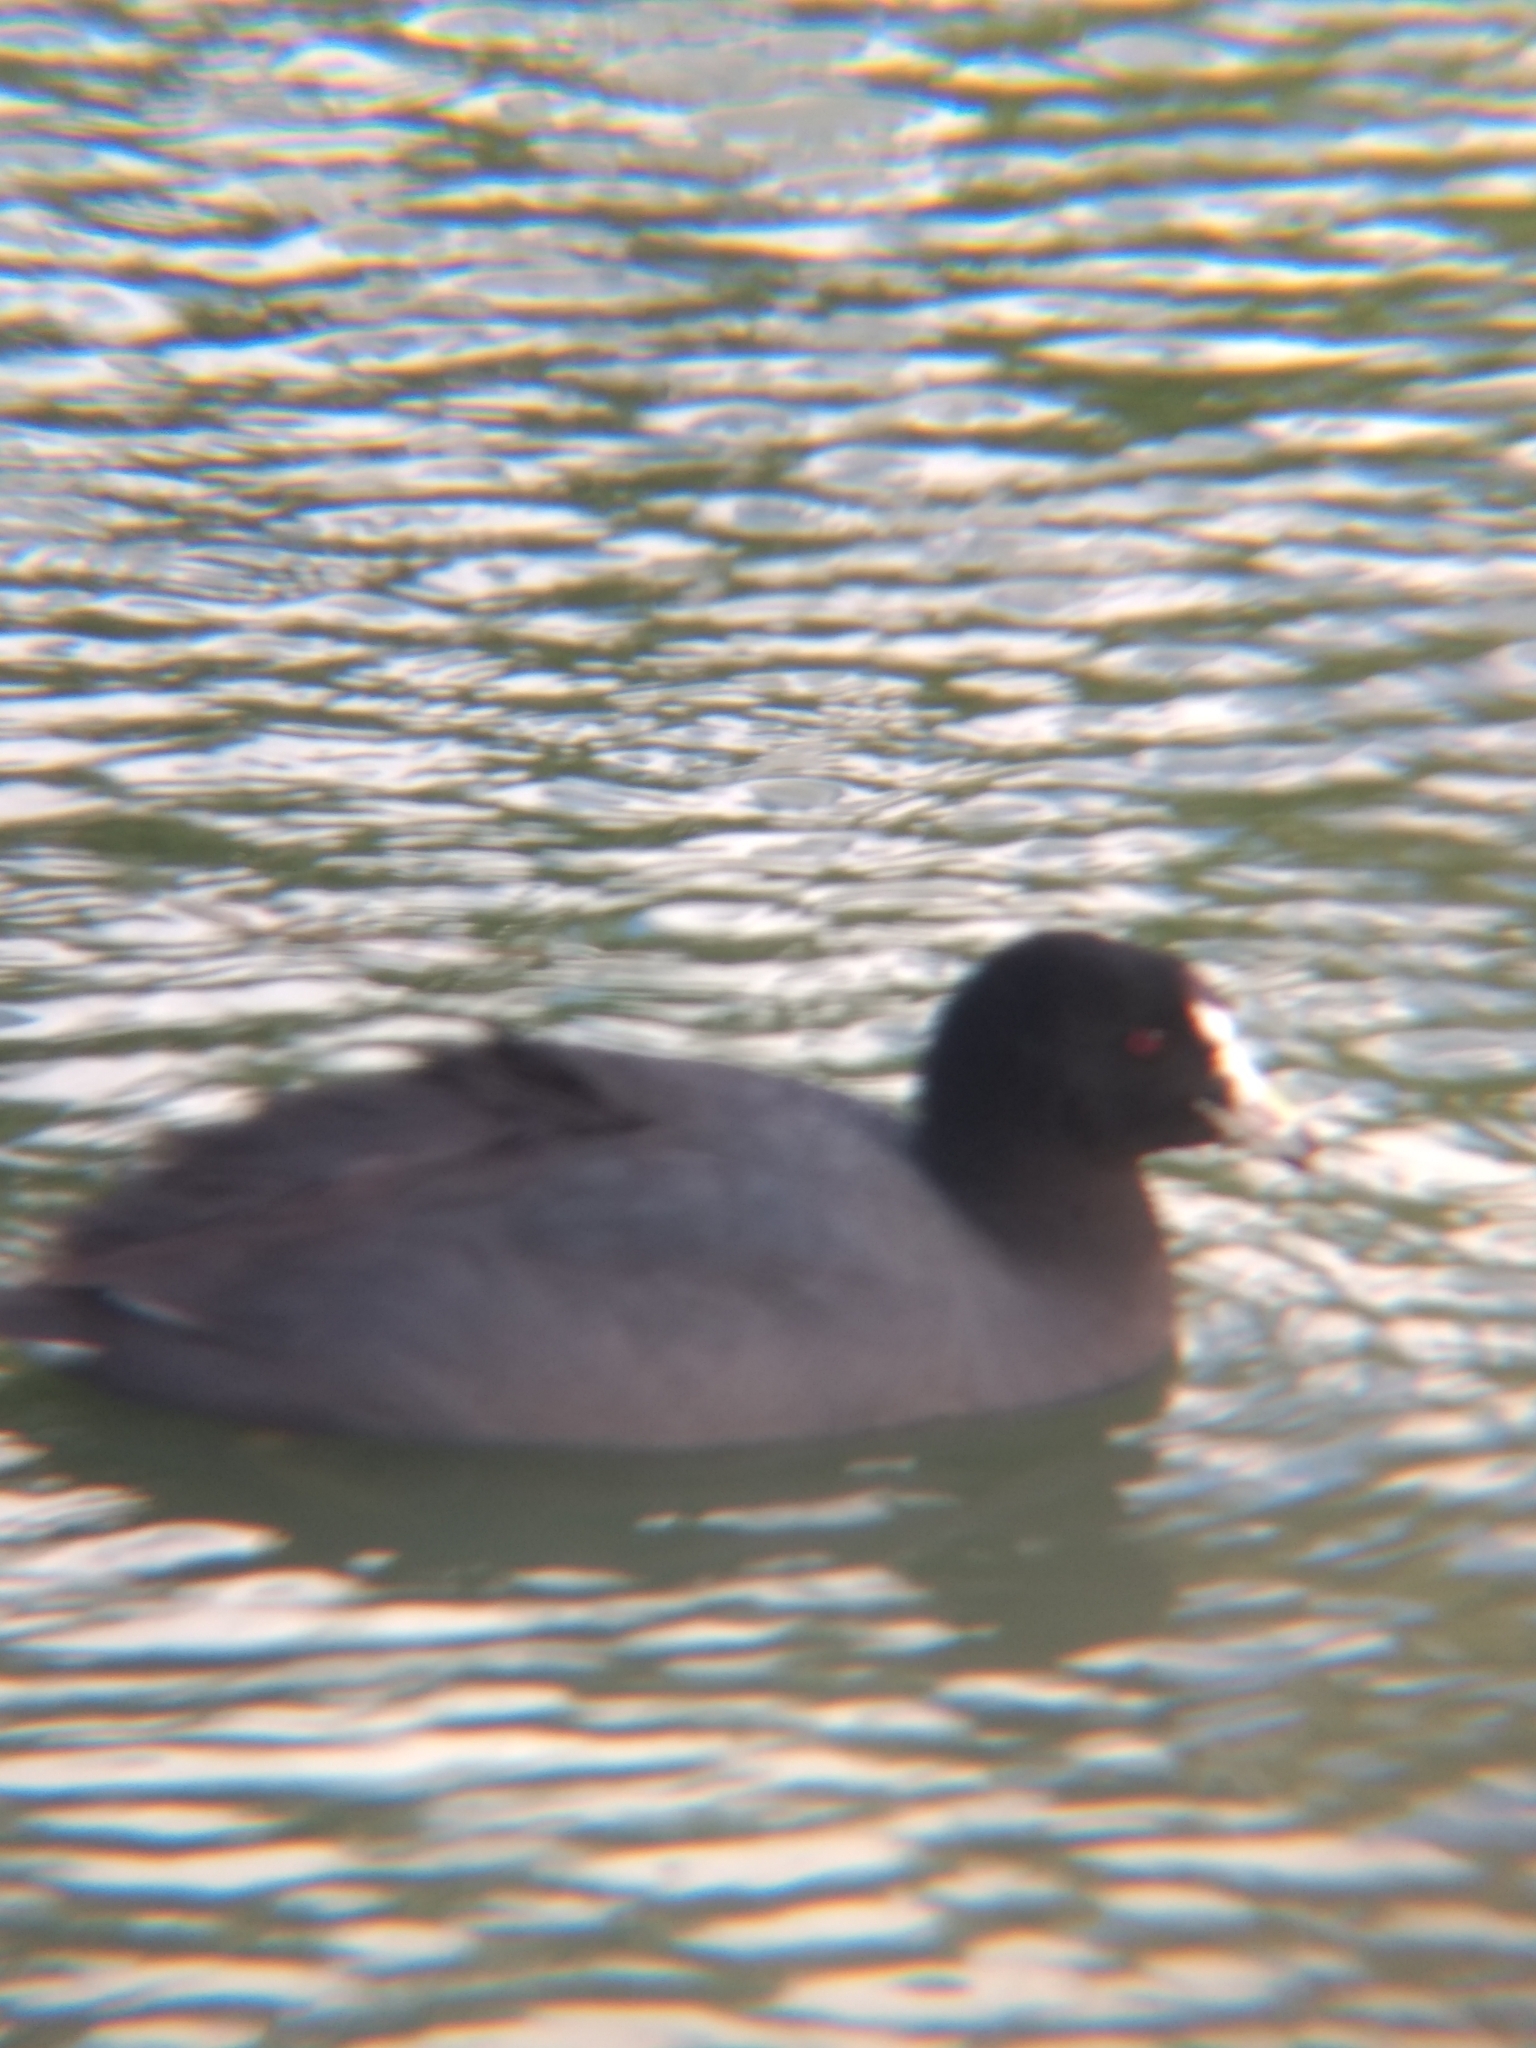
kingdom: Animalia
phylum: Chordata
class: Aves
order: Gruiformes
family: Rallidae
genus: Fulica
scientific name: Fulica americana
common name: American coot
